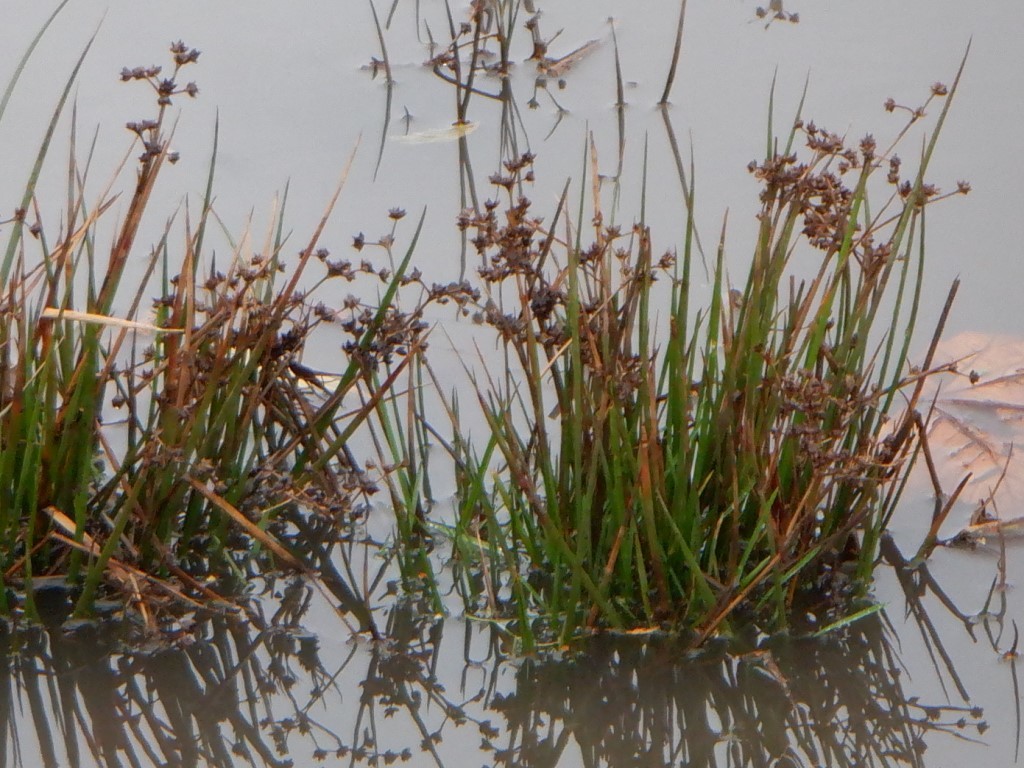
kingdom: Plantae
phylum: Tracheophyta
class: Liliopsida
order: Poales
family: Juncaceae
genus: Juncus
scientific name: Juncus articulatus
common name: Jointed rush
